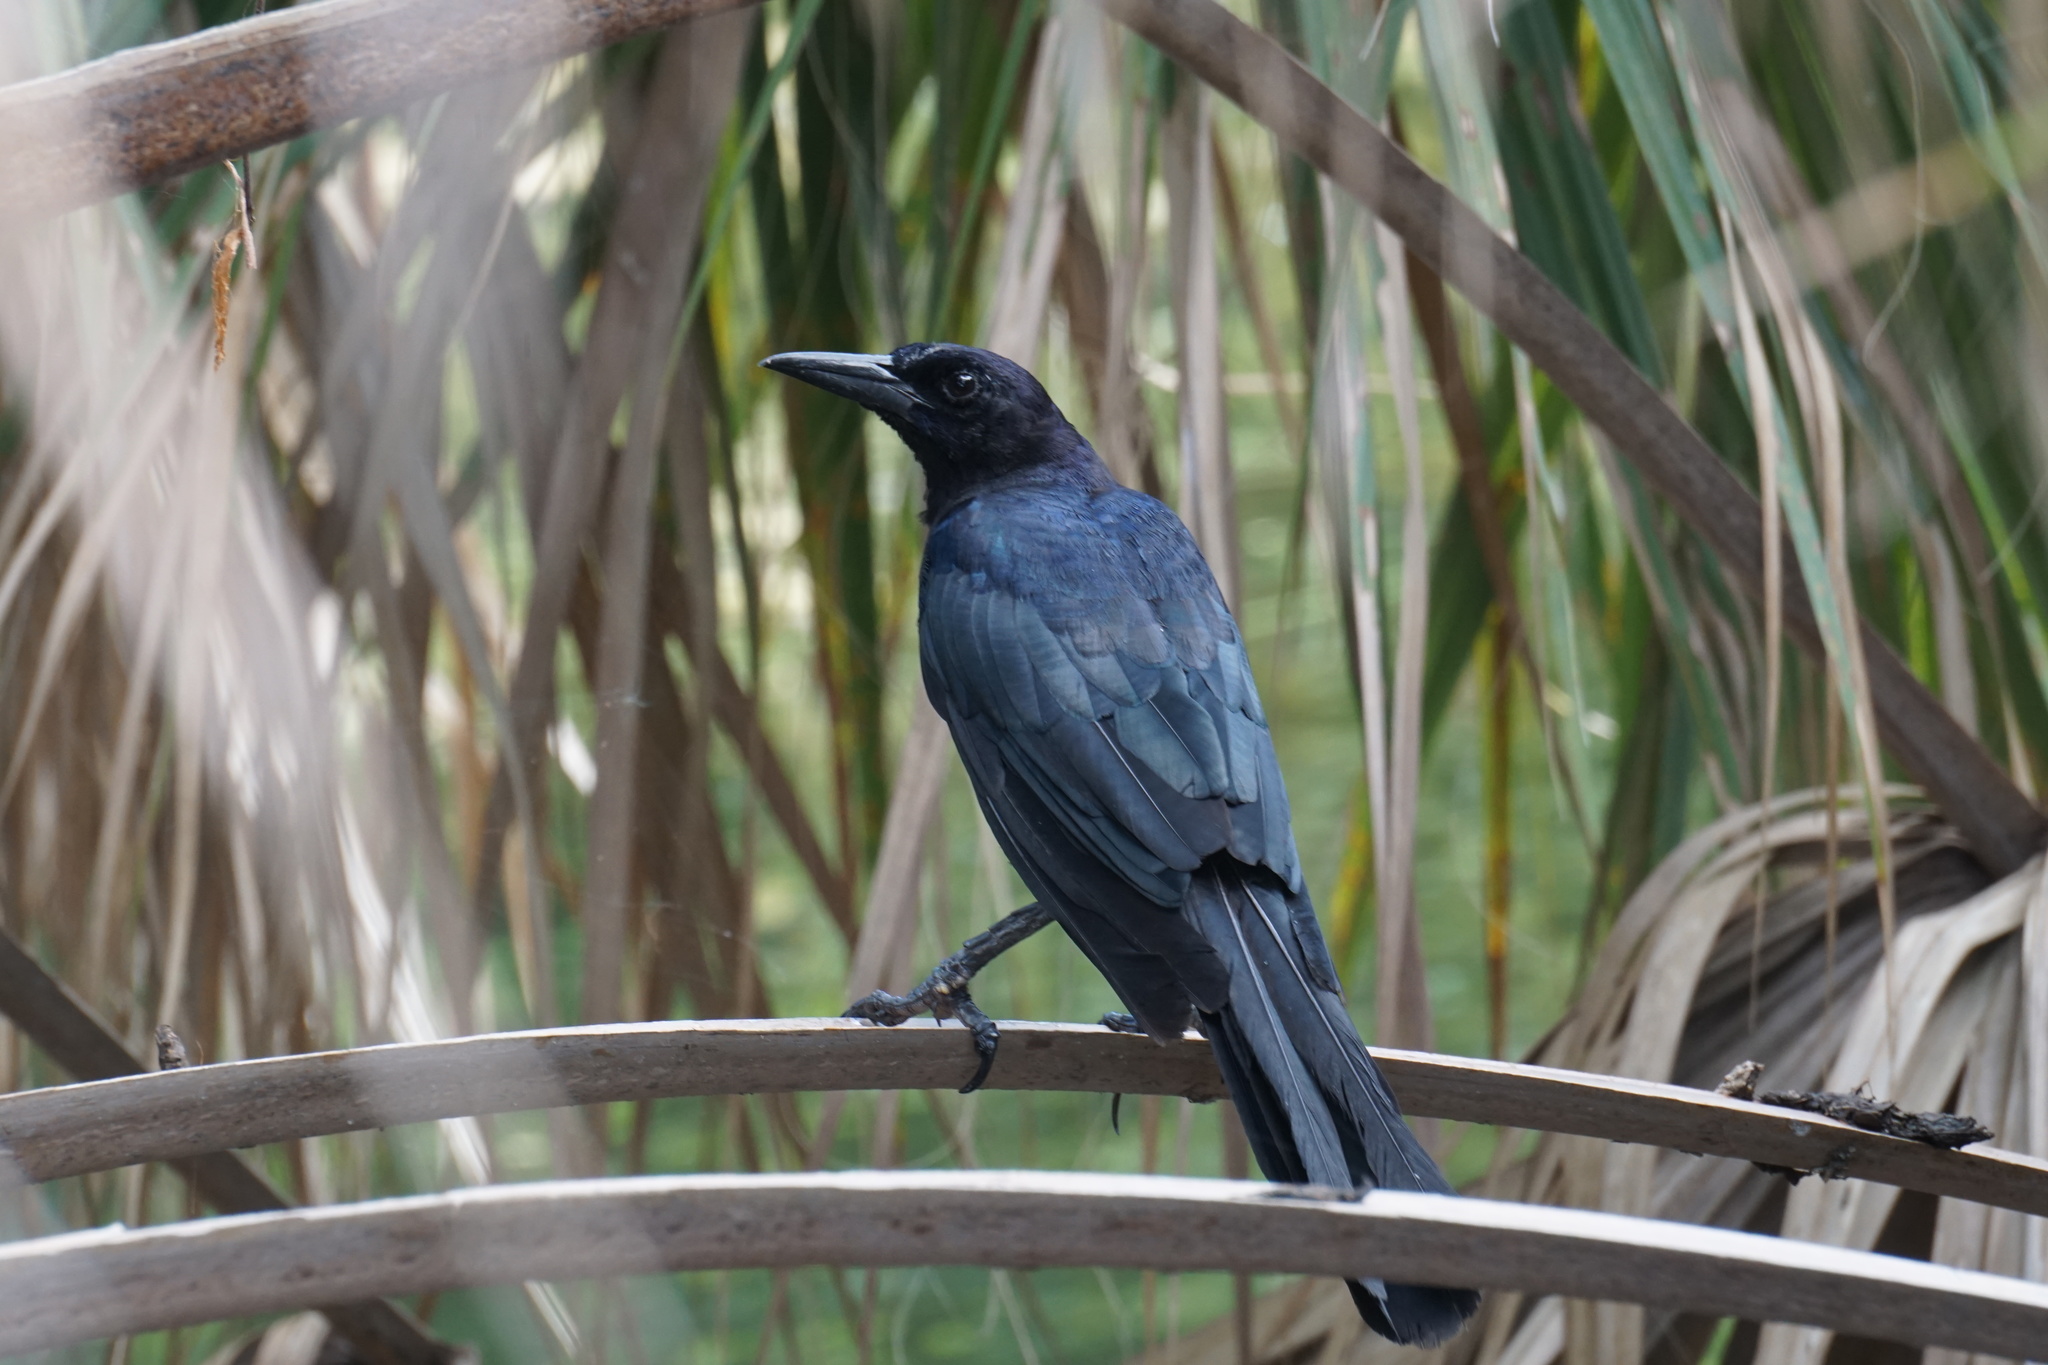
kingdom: Animalia
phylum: Chordata
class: Aves
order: Passeriformes
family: Icteridae
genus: Quiscalus
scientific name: Quiscalus major
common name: Boat-tailed grackle
